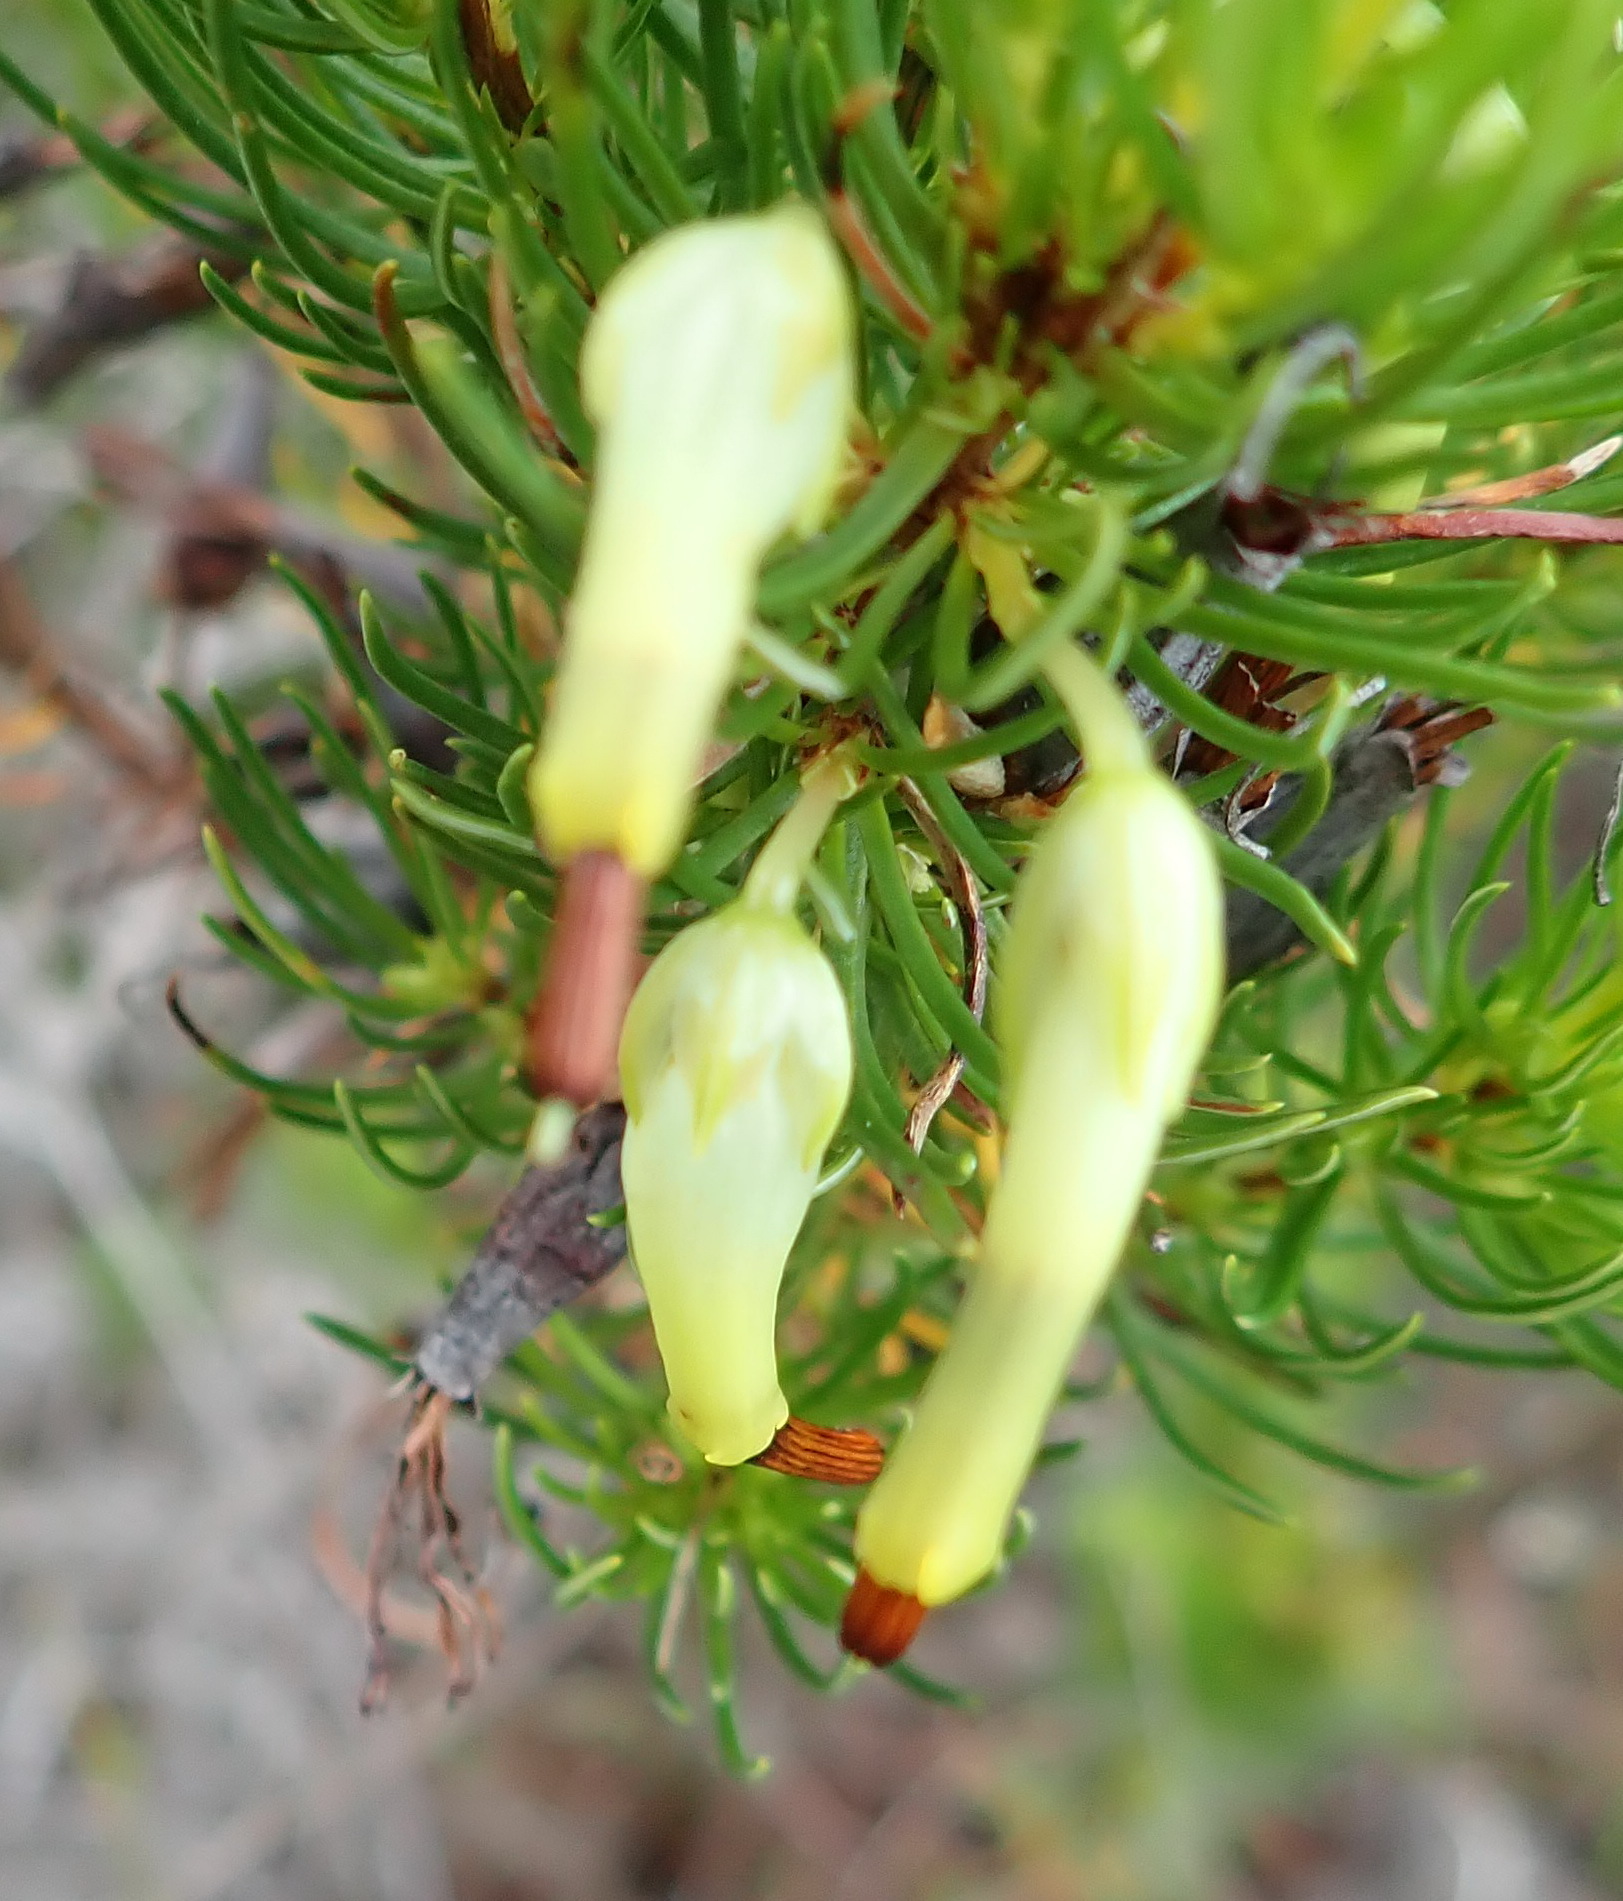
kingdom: Plantae
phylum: Tracheophyta
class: Magnoliopsida
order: Ericales
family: Ericaceae
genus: Erica
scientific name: Erica plukenetii
